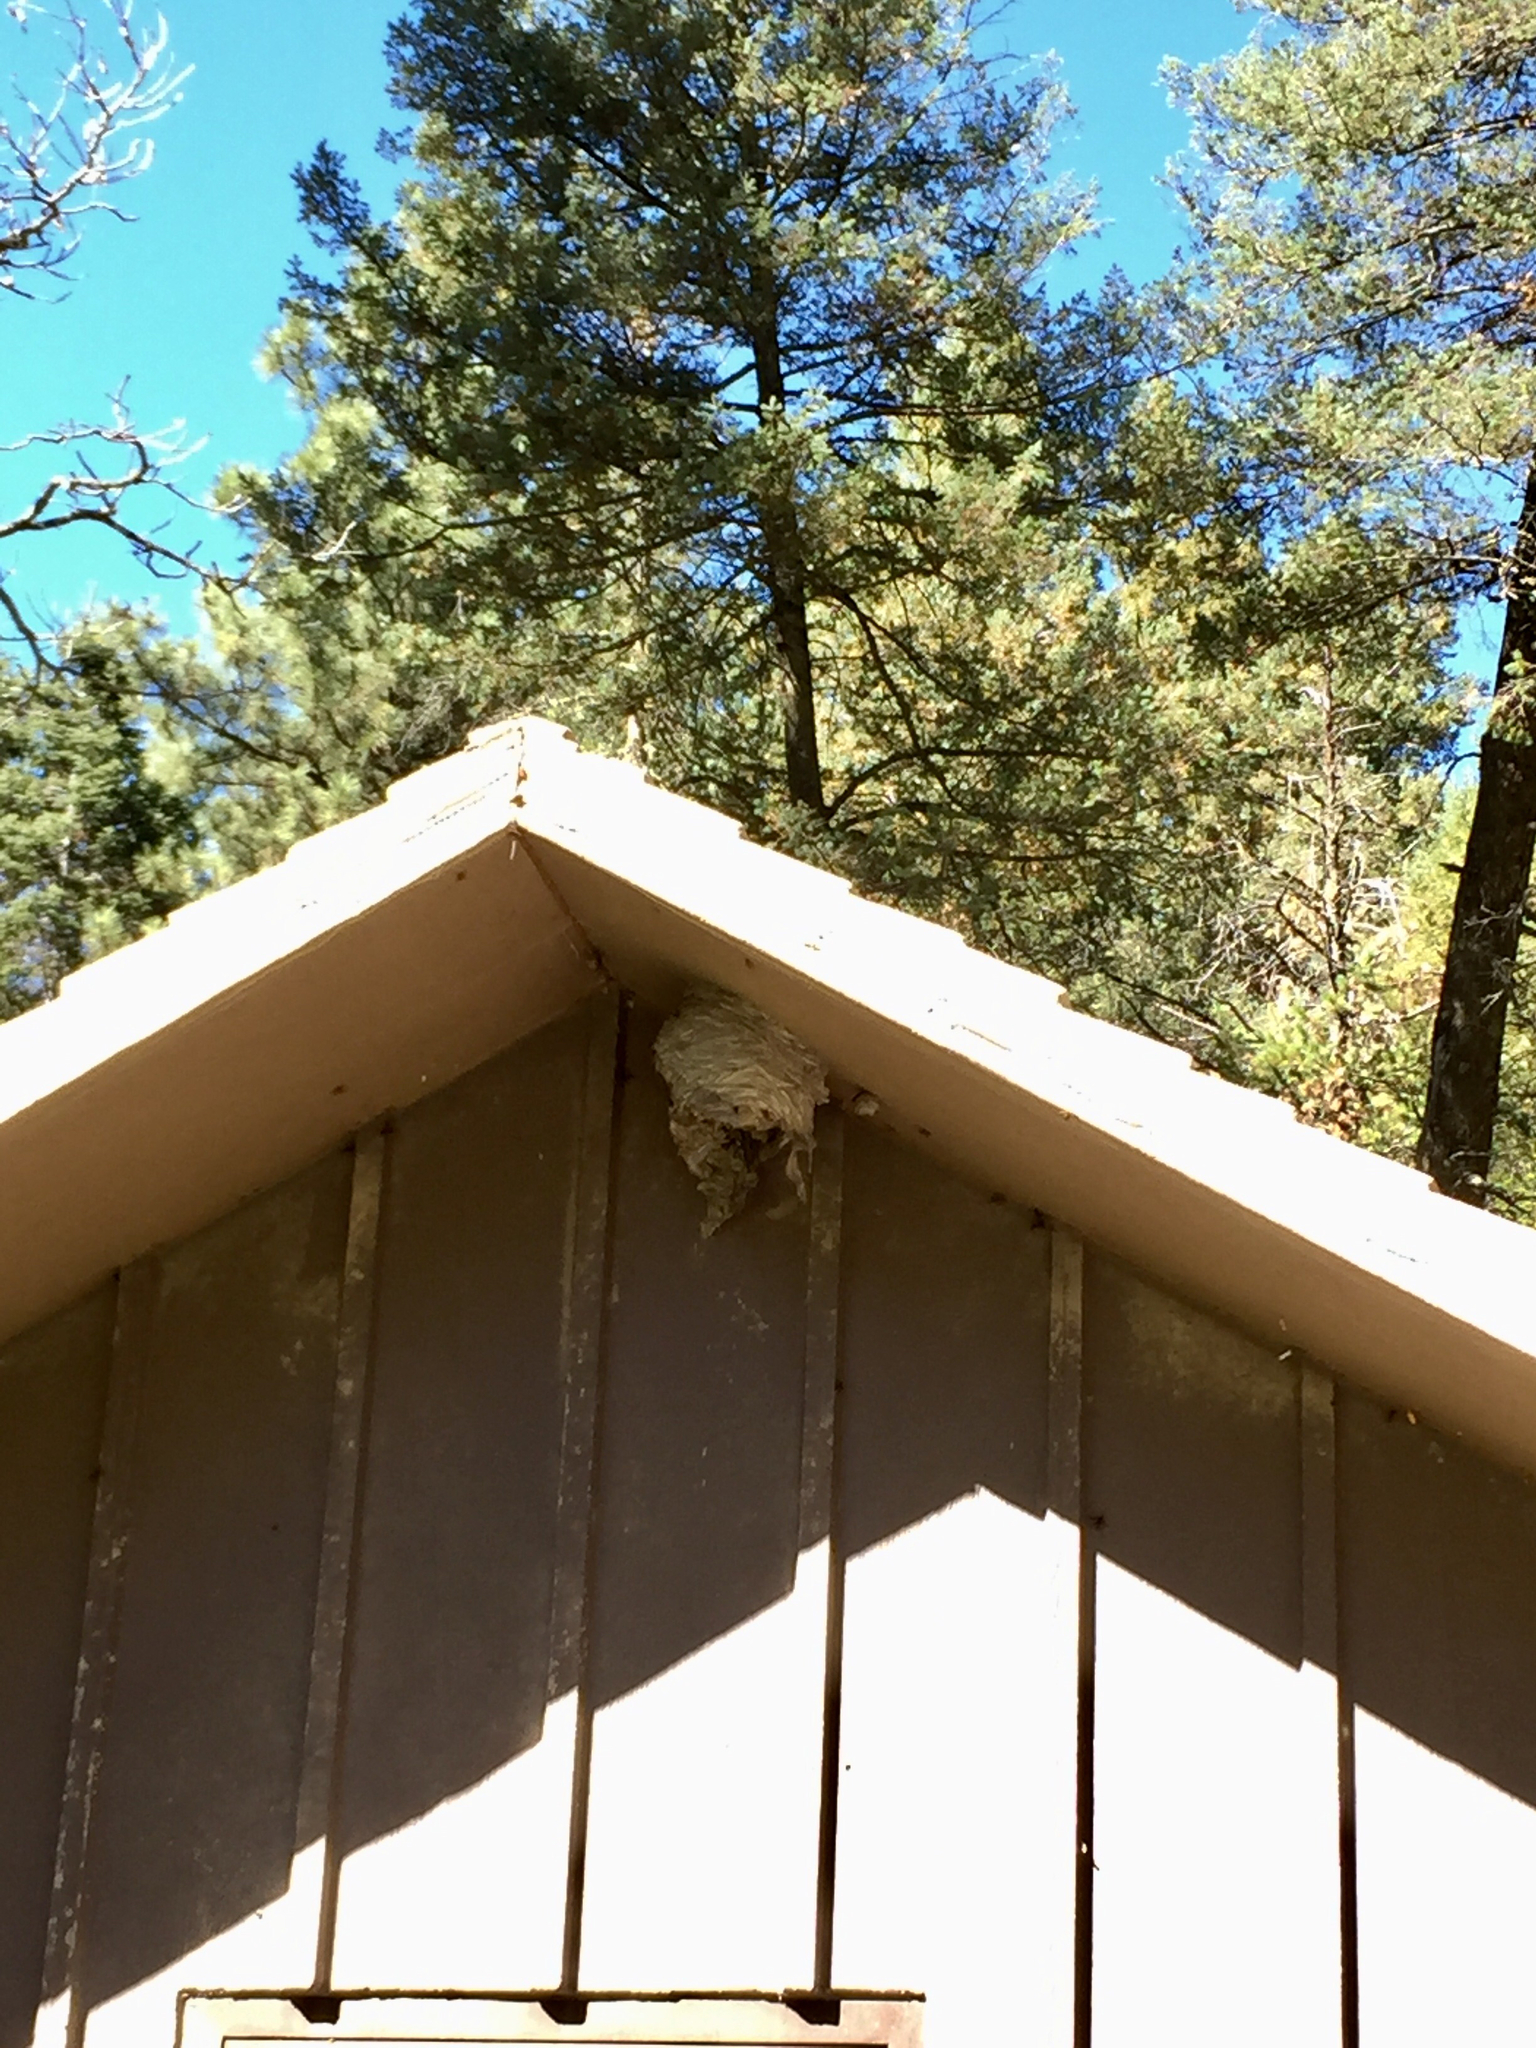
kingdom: Animalia
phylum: Arthropoda
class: Insecta
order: Hymenoptera
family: Vespidae
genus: Dolichovespula
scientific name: Dolichovespula
